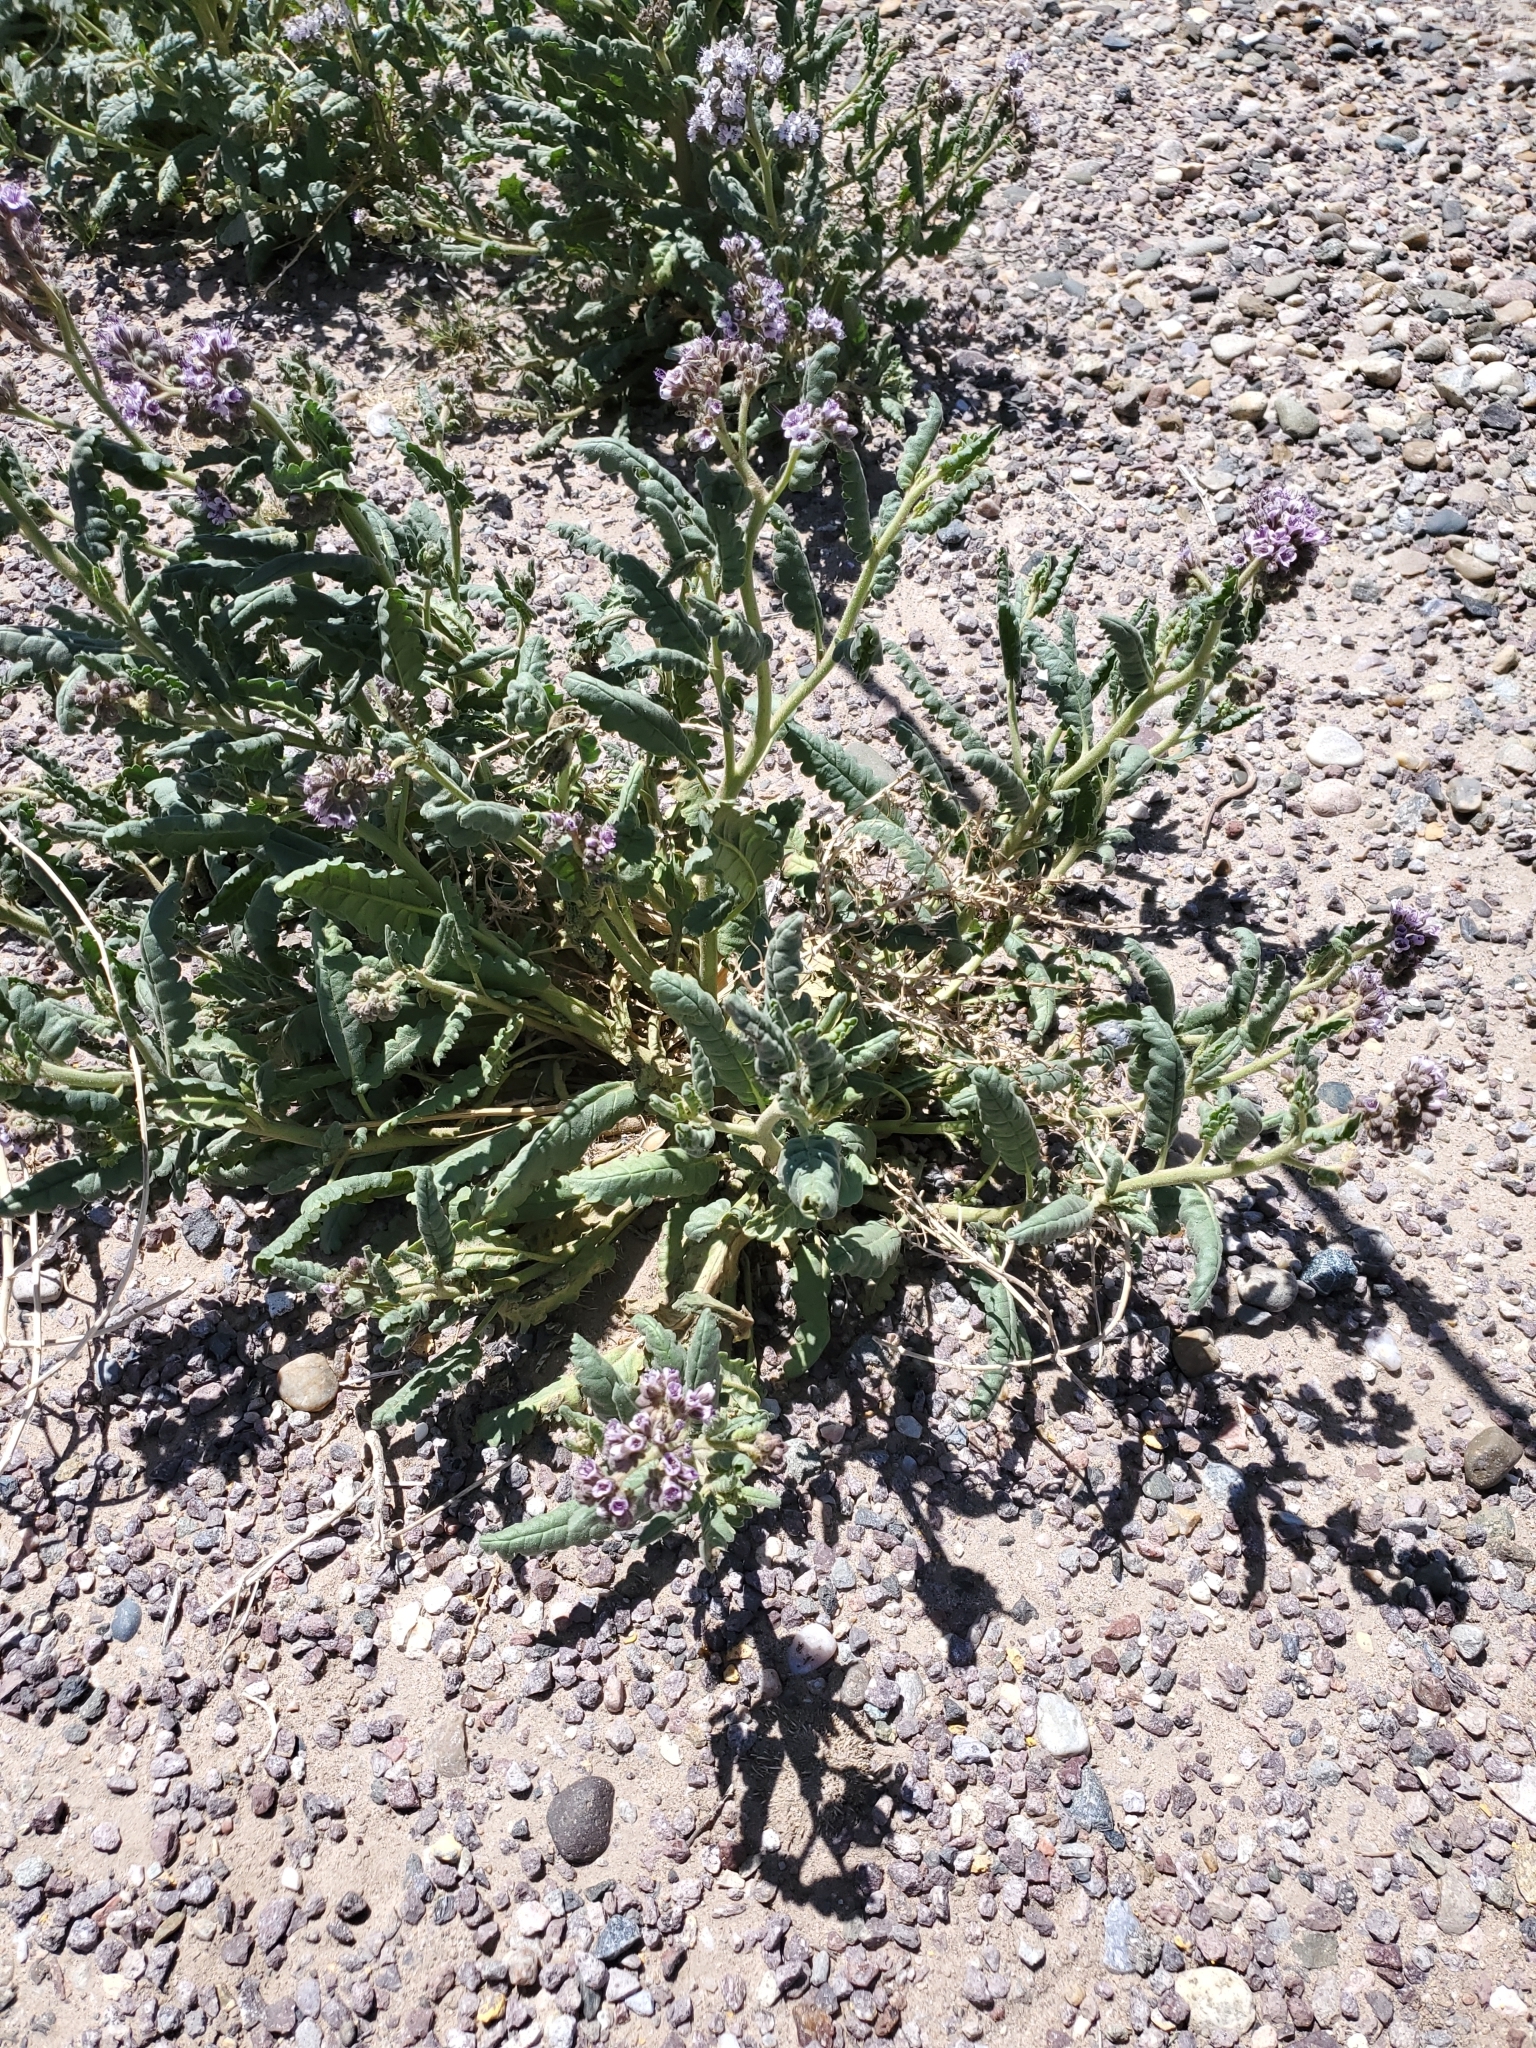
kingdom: Plantae
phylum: Tracheophyta
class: Magnoliopsida
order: Boraginales
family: Hydrophyllaceae
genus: Phacelia
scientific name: Phacelia integrifolia
